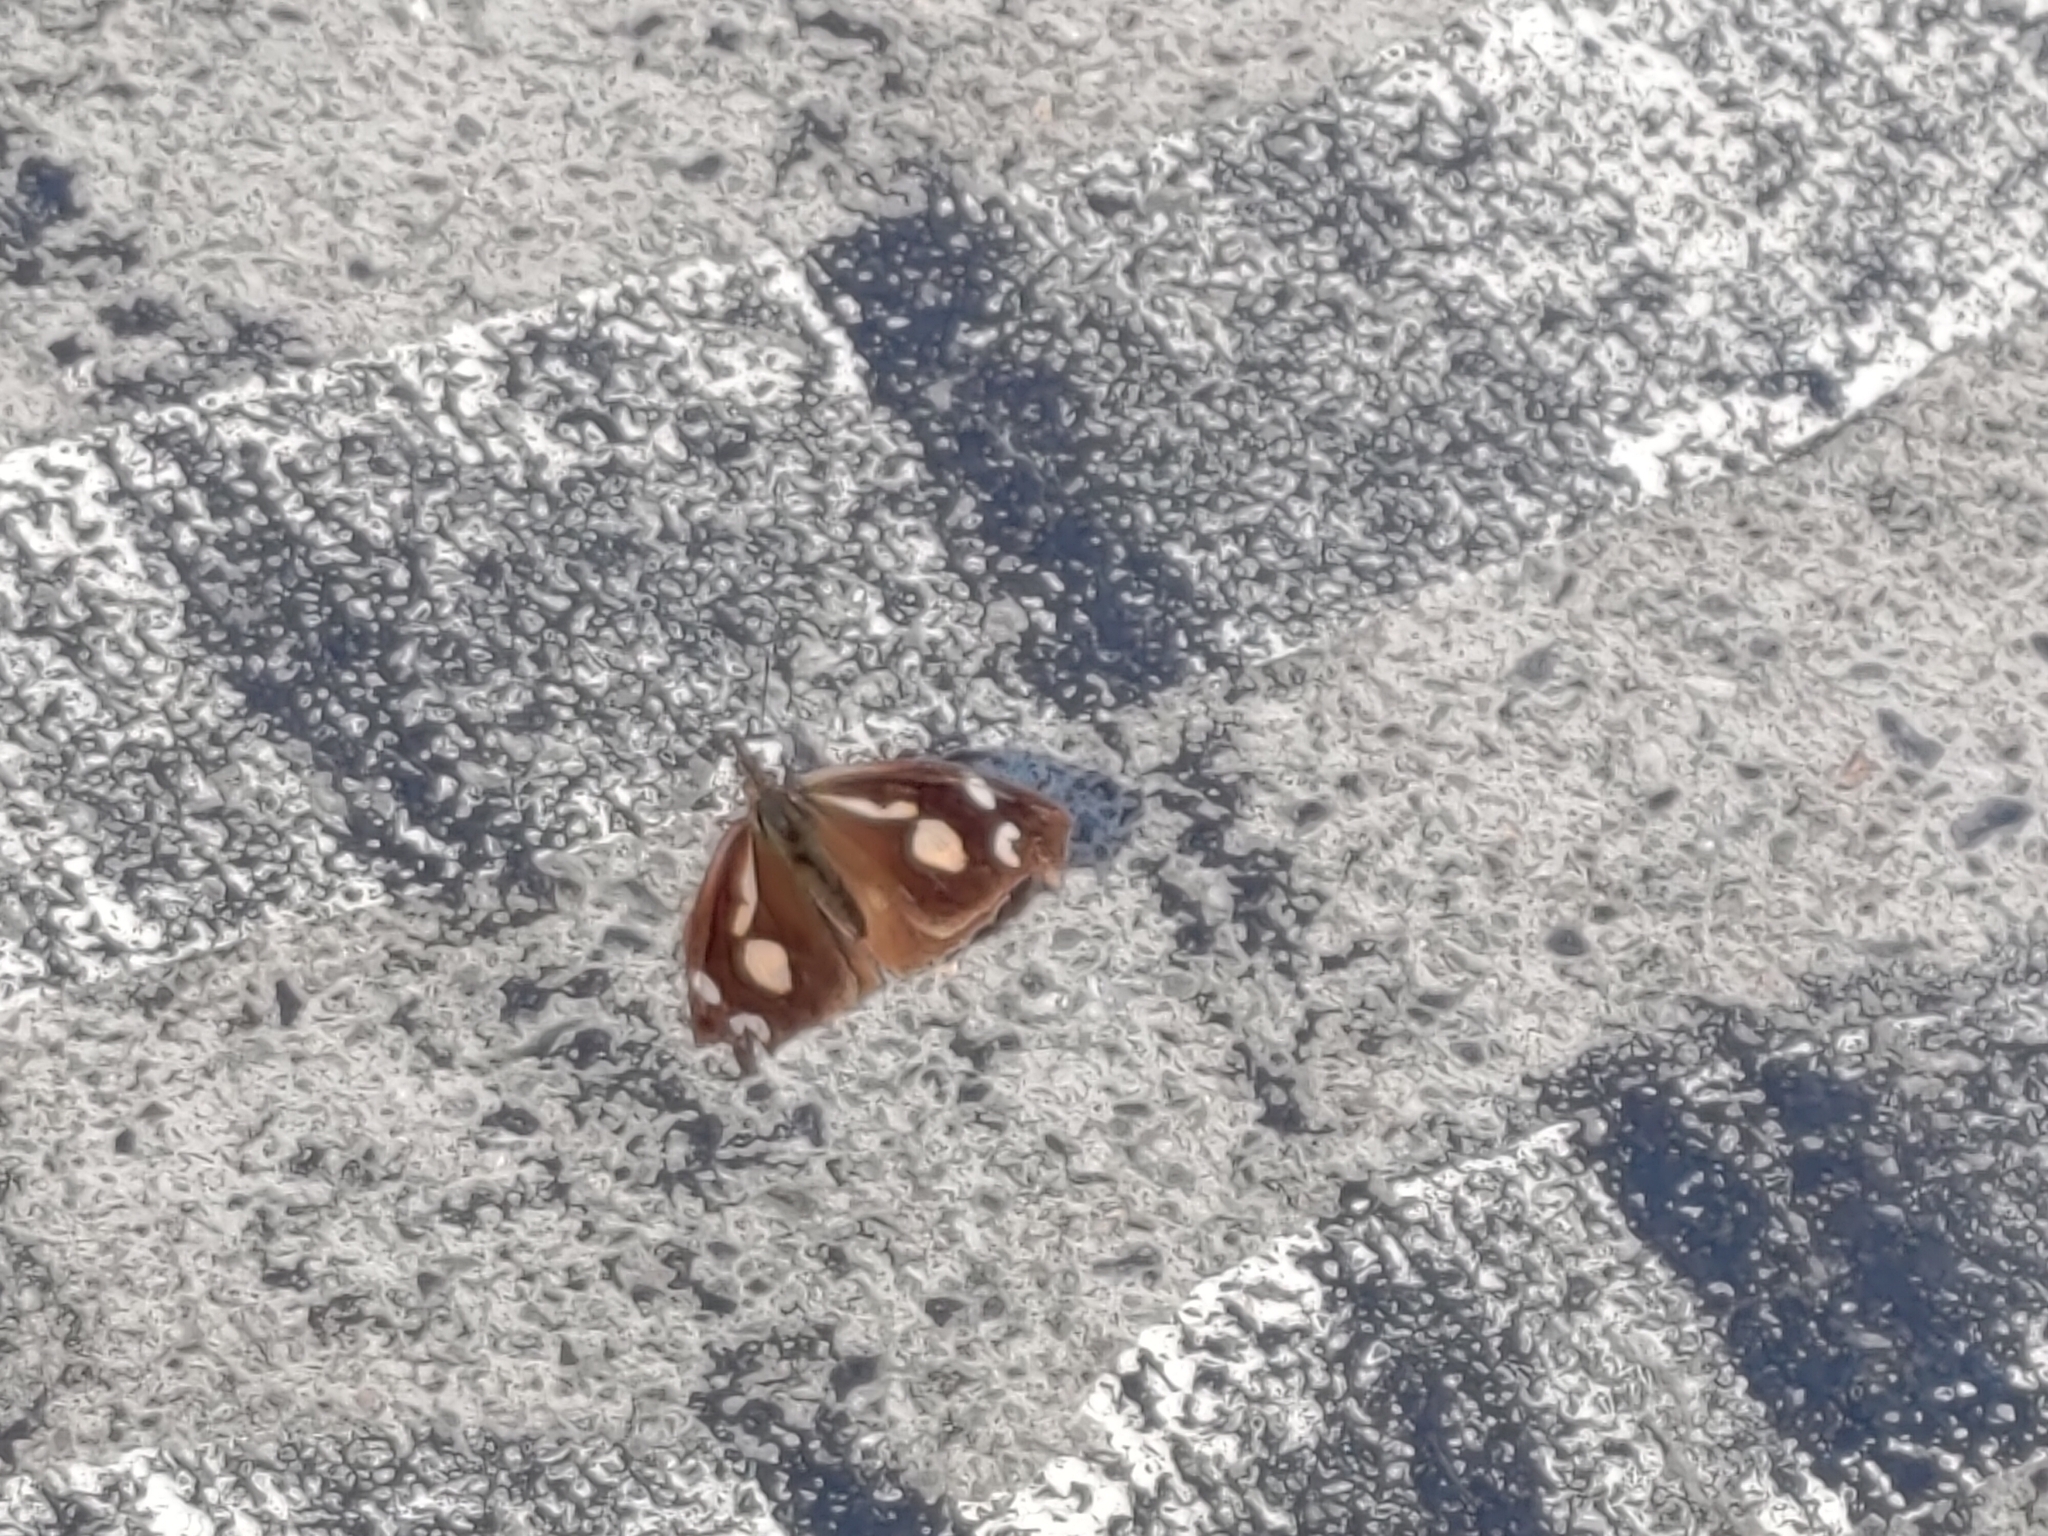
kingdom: Animalia
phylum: Arthropoda
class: Insecta
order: Lepidoptera
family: Nymphalidae
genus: Libythea
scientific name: Libythea lepita
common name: Common beak
